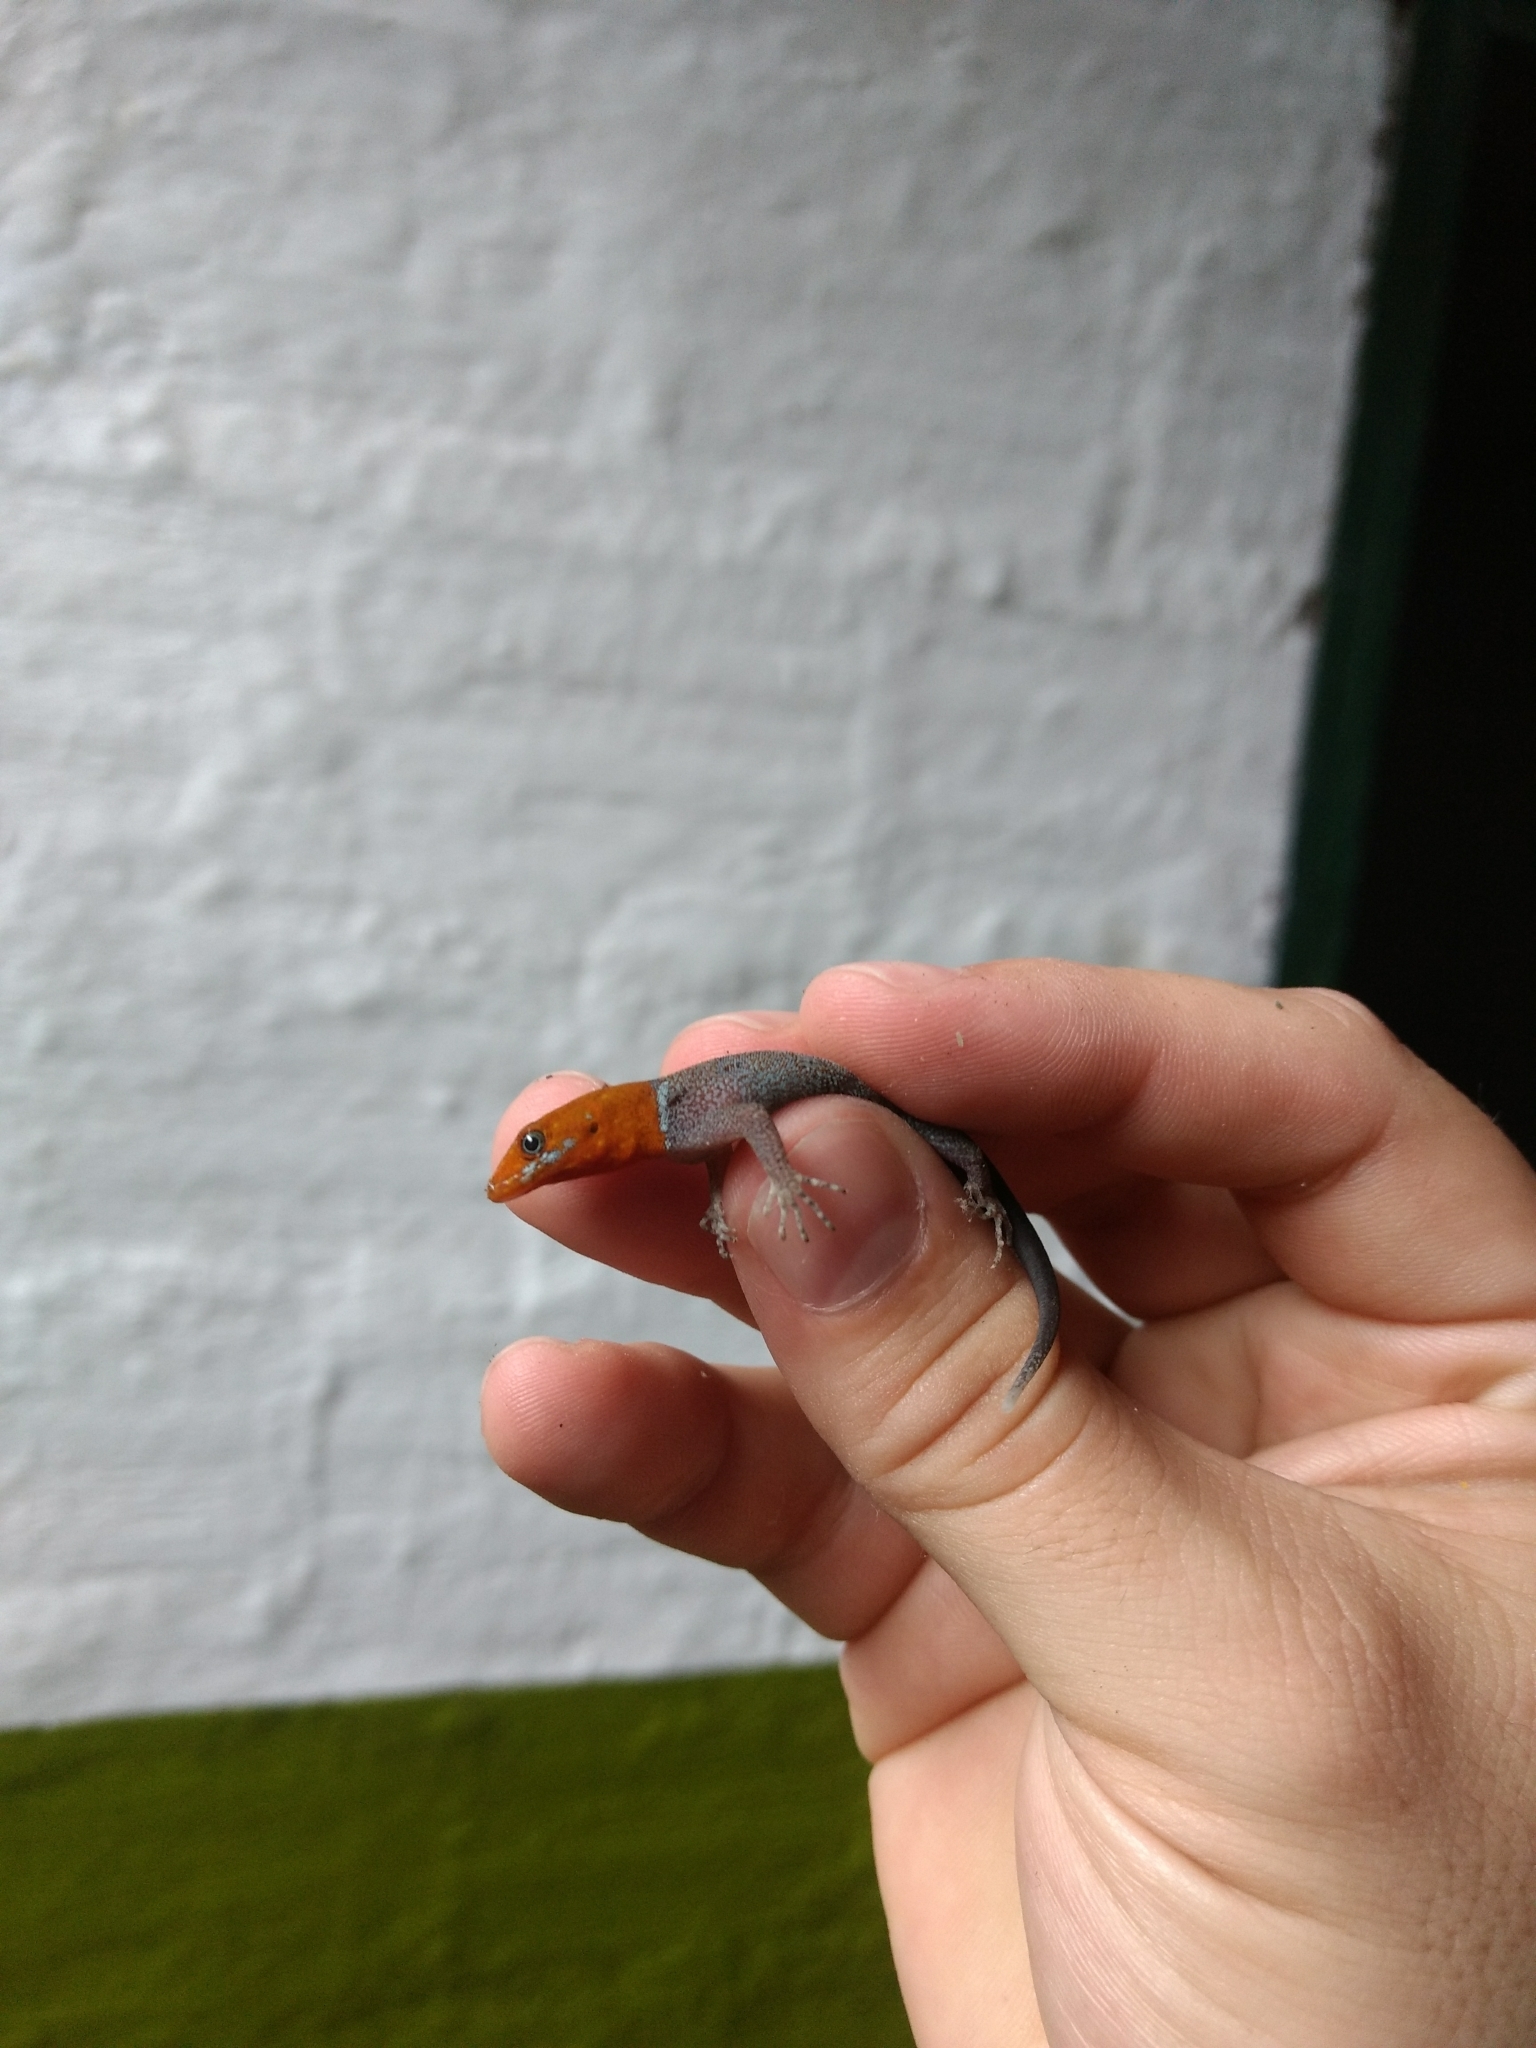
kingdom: Animalia
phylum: Chordata
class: Squamata
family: Sphaerodactylidae
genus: Gonatodes
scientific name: Gonatodes albogularis
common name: Yellow-headed gecko
